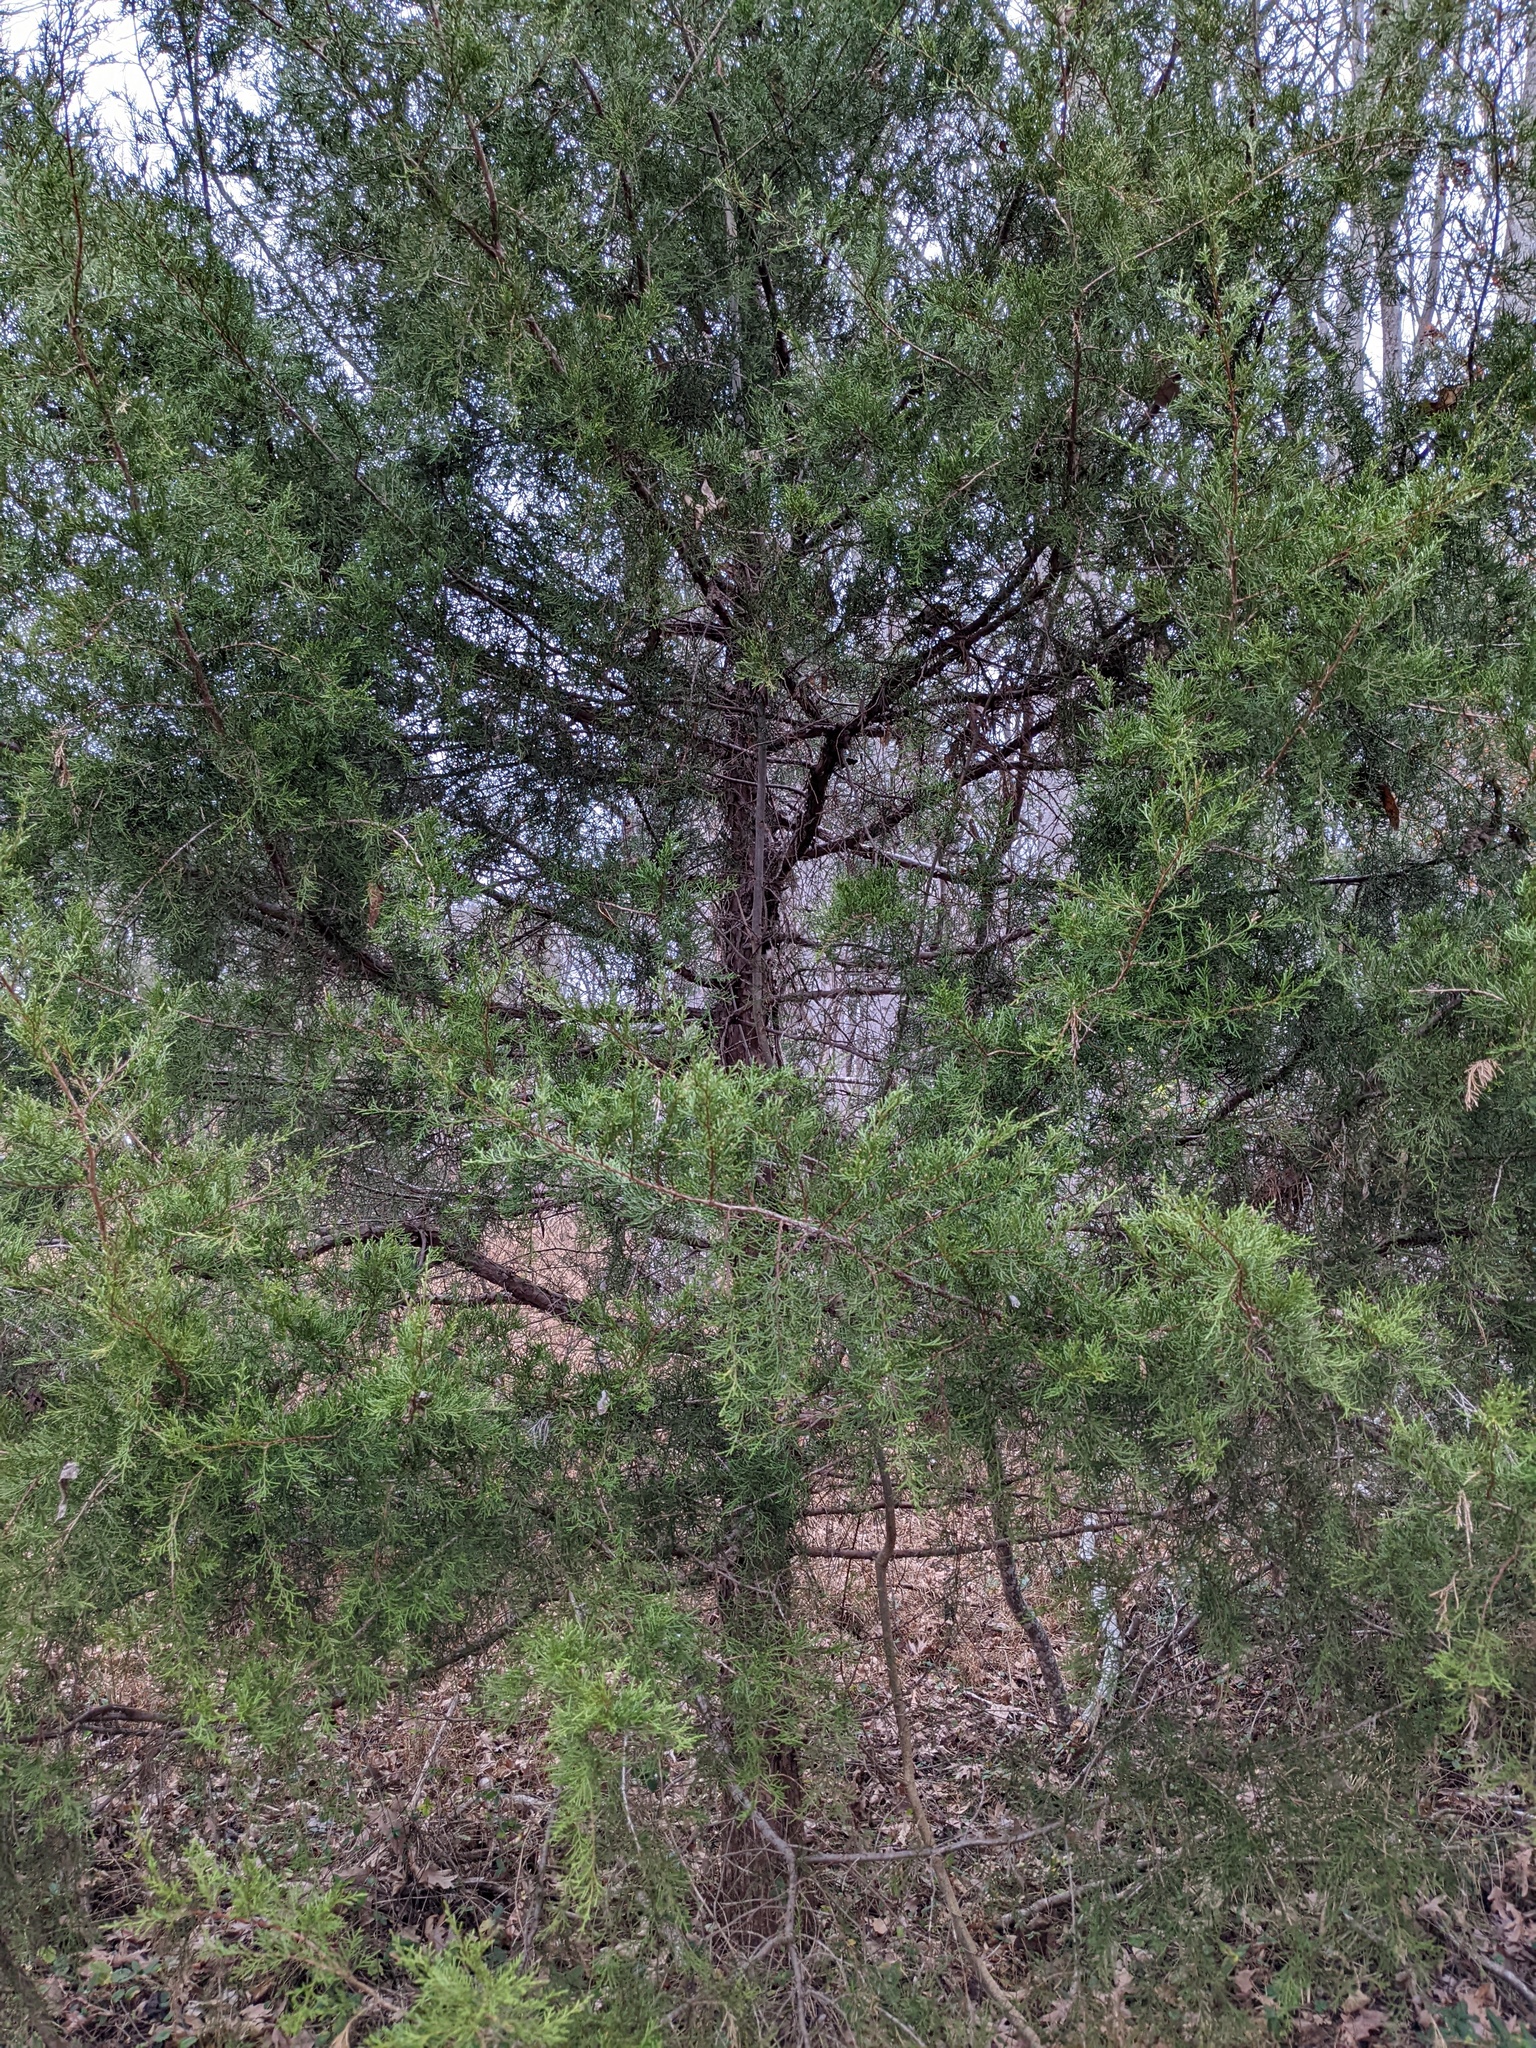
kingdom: Plantae
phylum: Tracheophyta
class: Pinopsida
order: Pinales
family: Cupressaceae
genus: Juniperus
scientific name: Juniperus virginiana
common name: Red juniper
